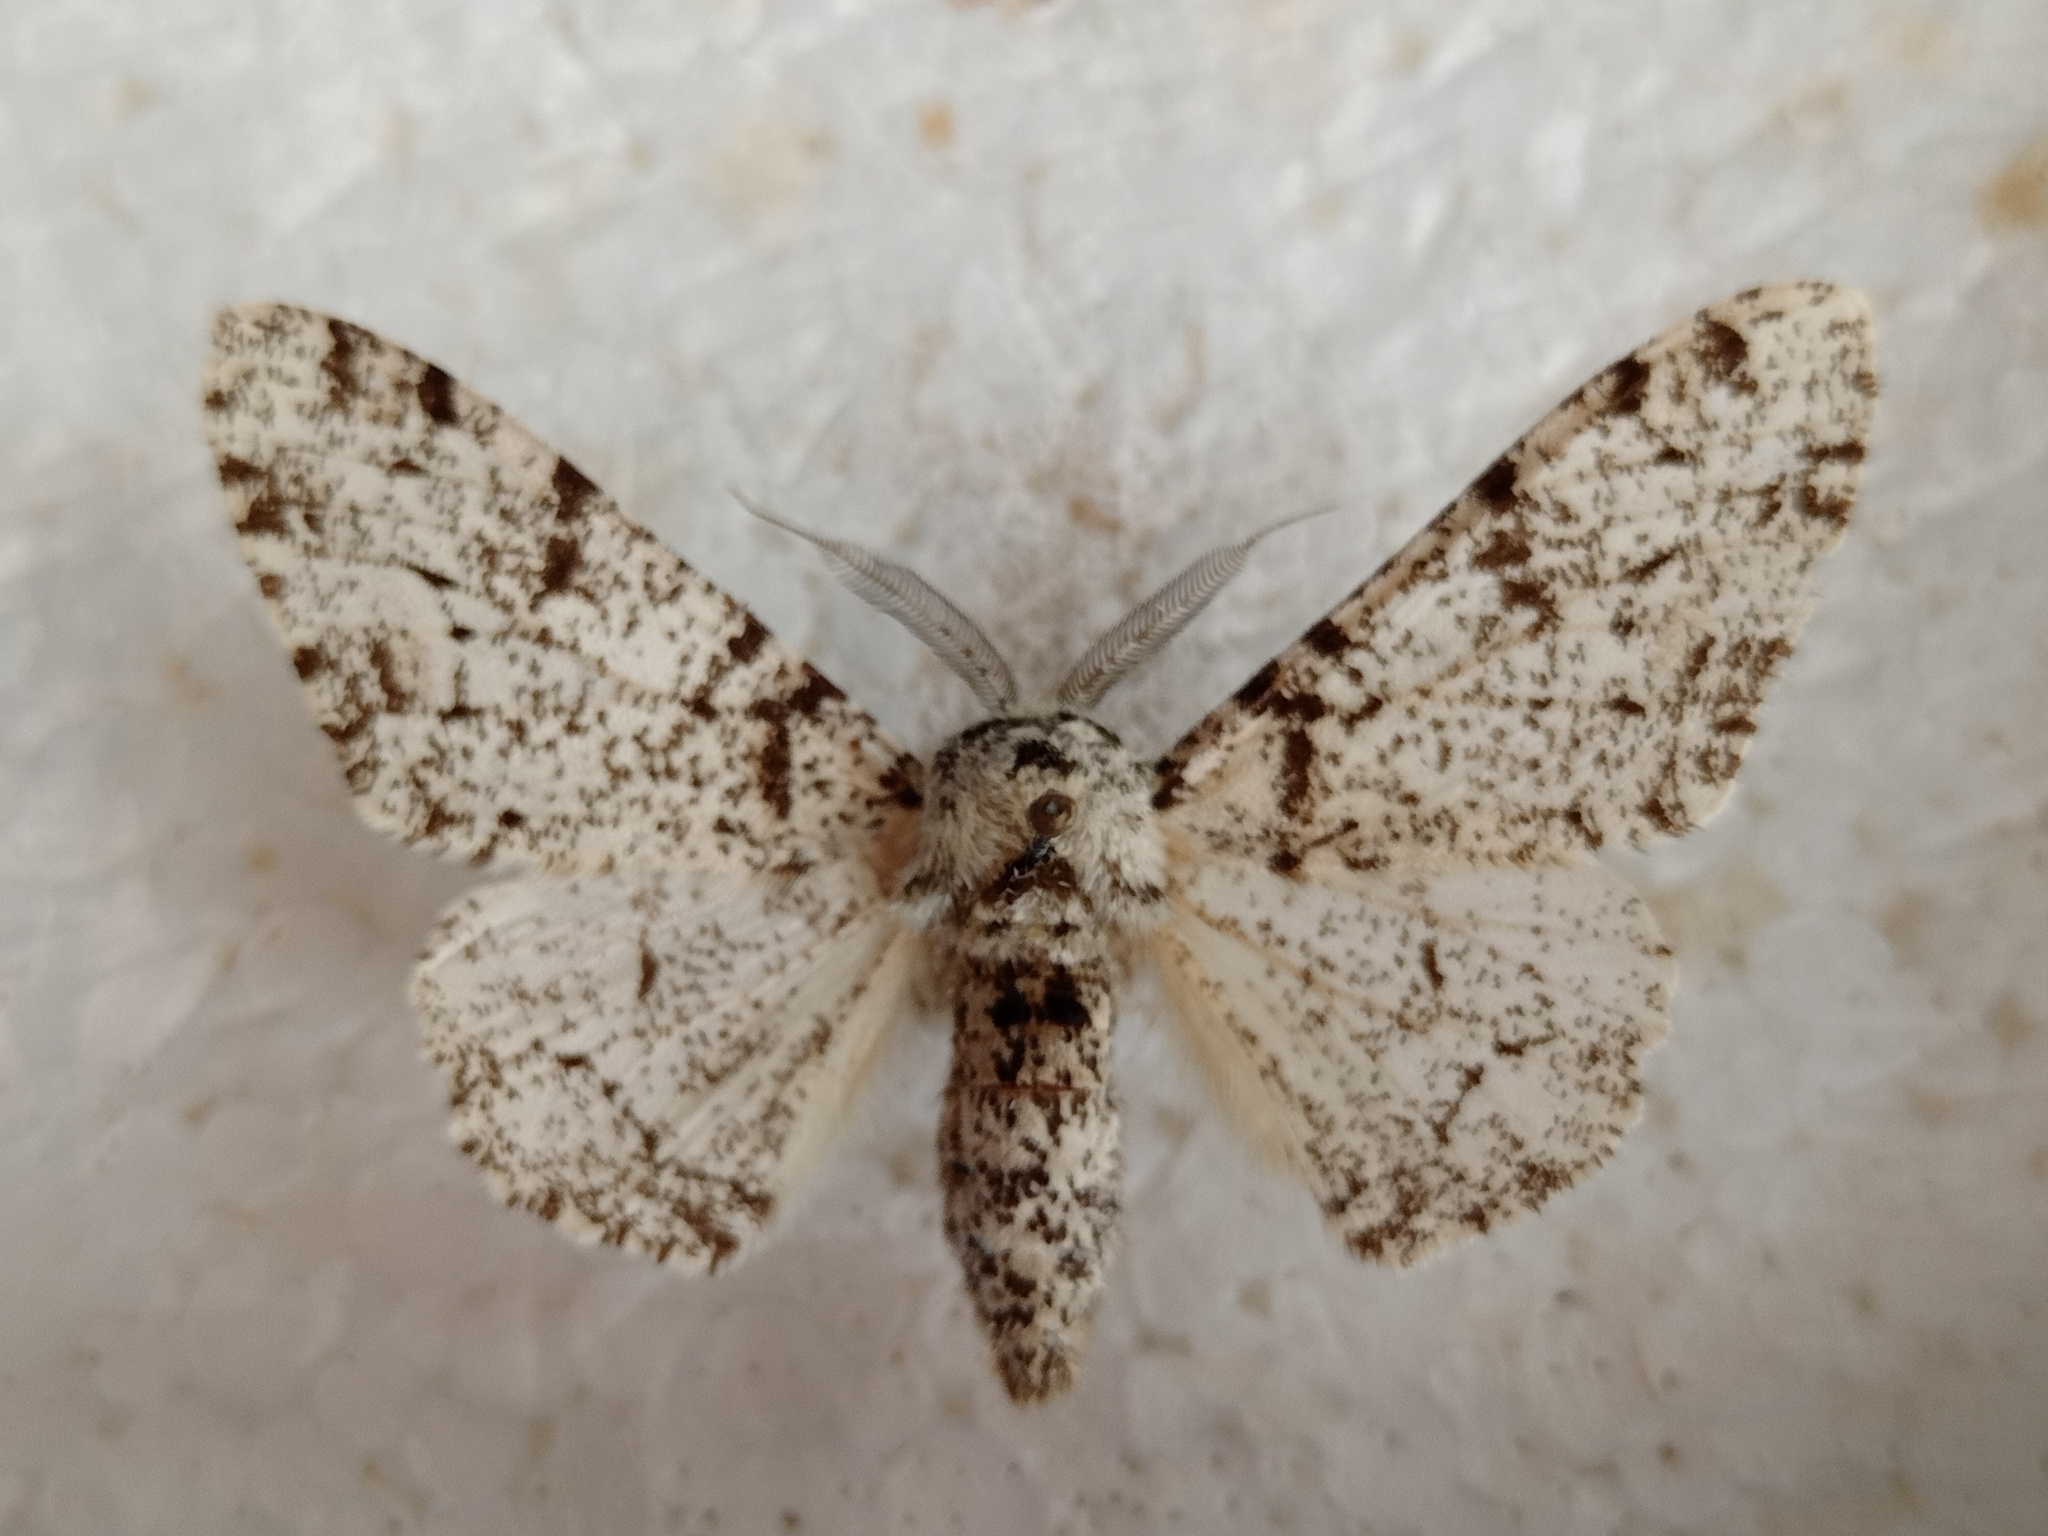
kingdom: Animalia
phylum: Arthropoda
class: Insecta
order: Lepidoptera
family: Geometridae
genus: Biston
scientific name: Biston betularia
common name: Peppered moth
